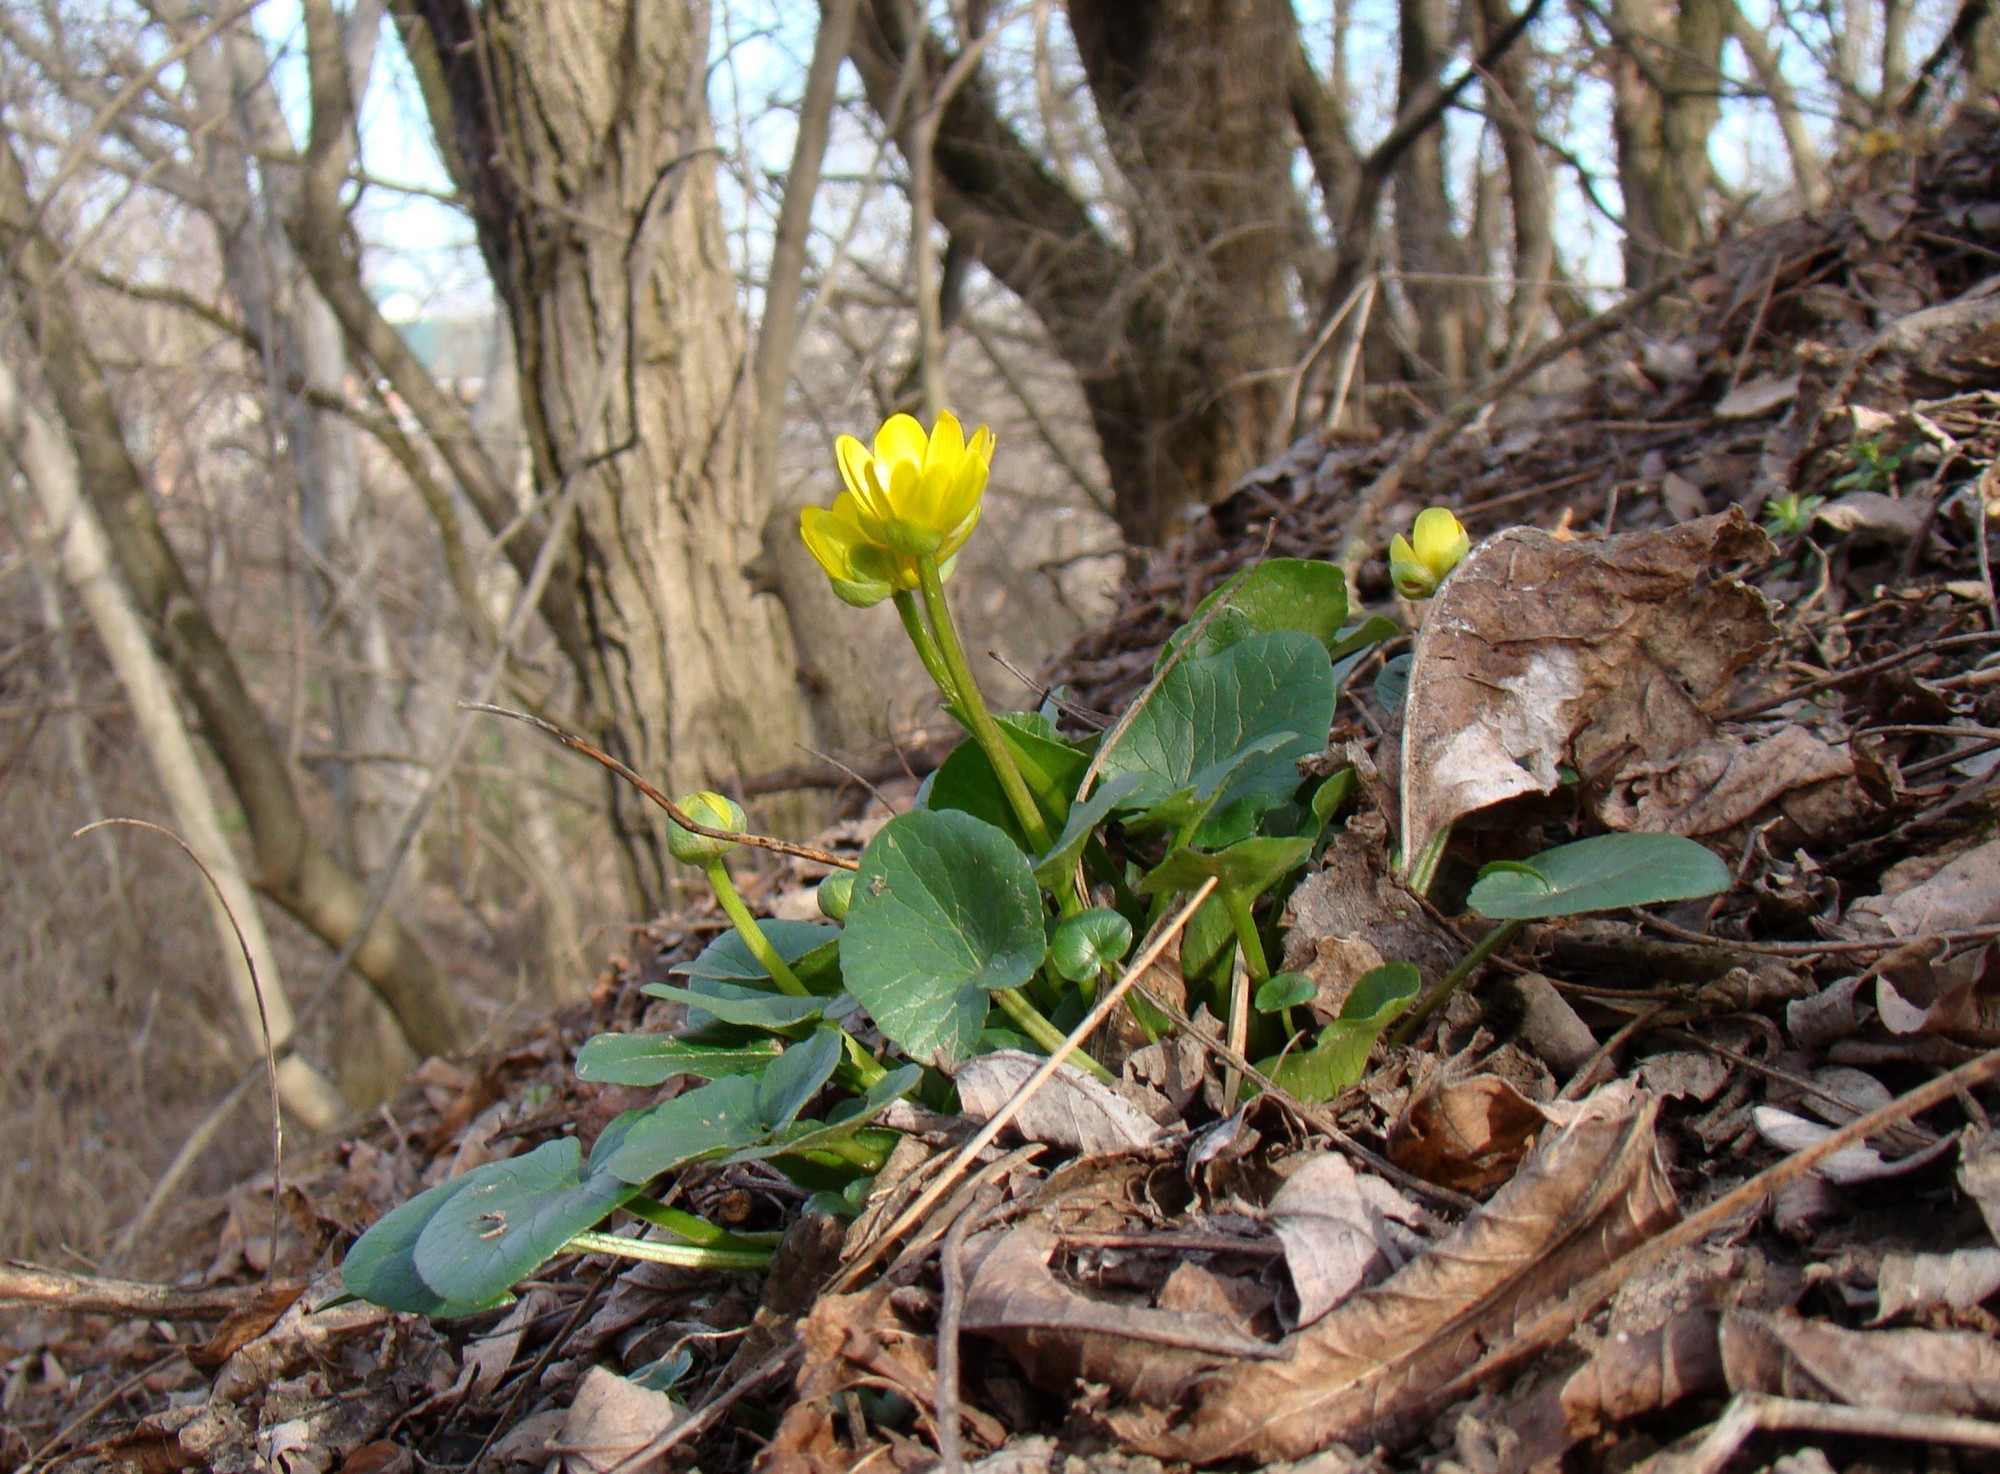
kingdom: Plantae
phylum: Tracheophyta
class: Magnoliopsida
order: Ranunculales
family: Ranunculaceae
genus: Ficaria
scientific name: Ficaria
